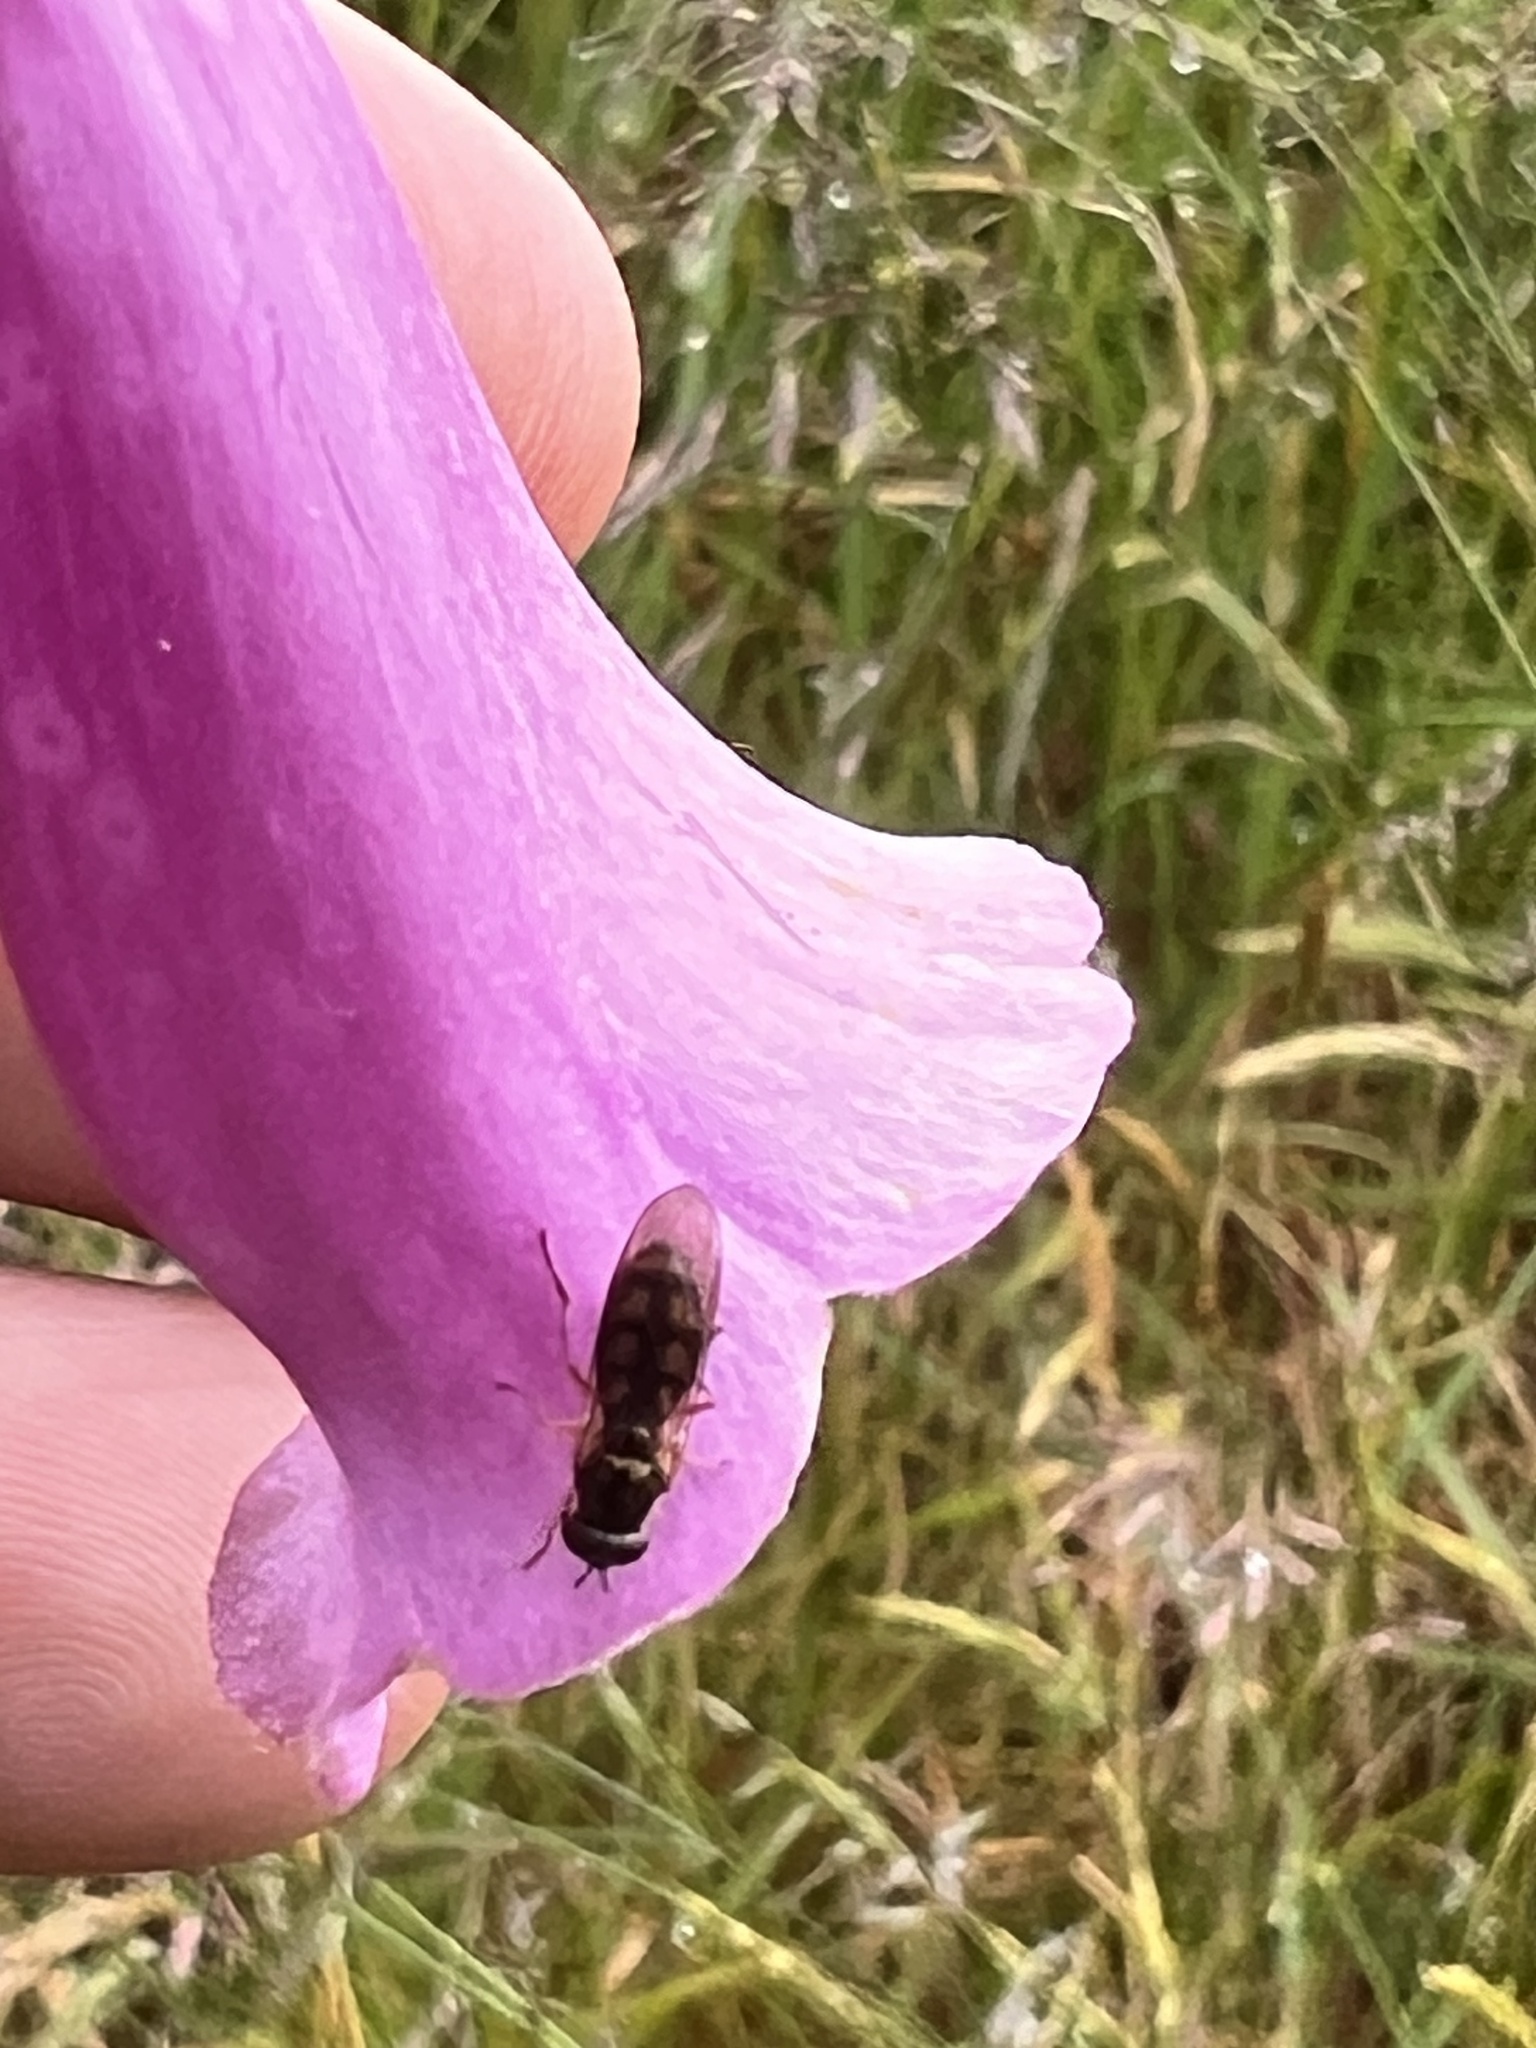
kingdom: Animalia
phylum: Arthropoda
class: Insecta
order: Diptera
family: Syrphidae
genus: Melanostoma
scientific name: Melanostoma fasciatum
